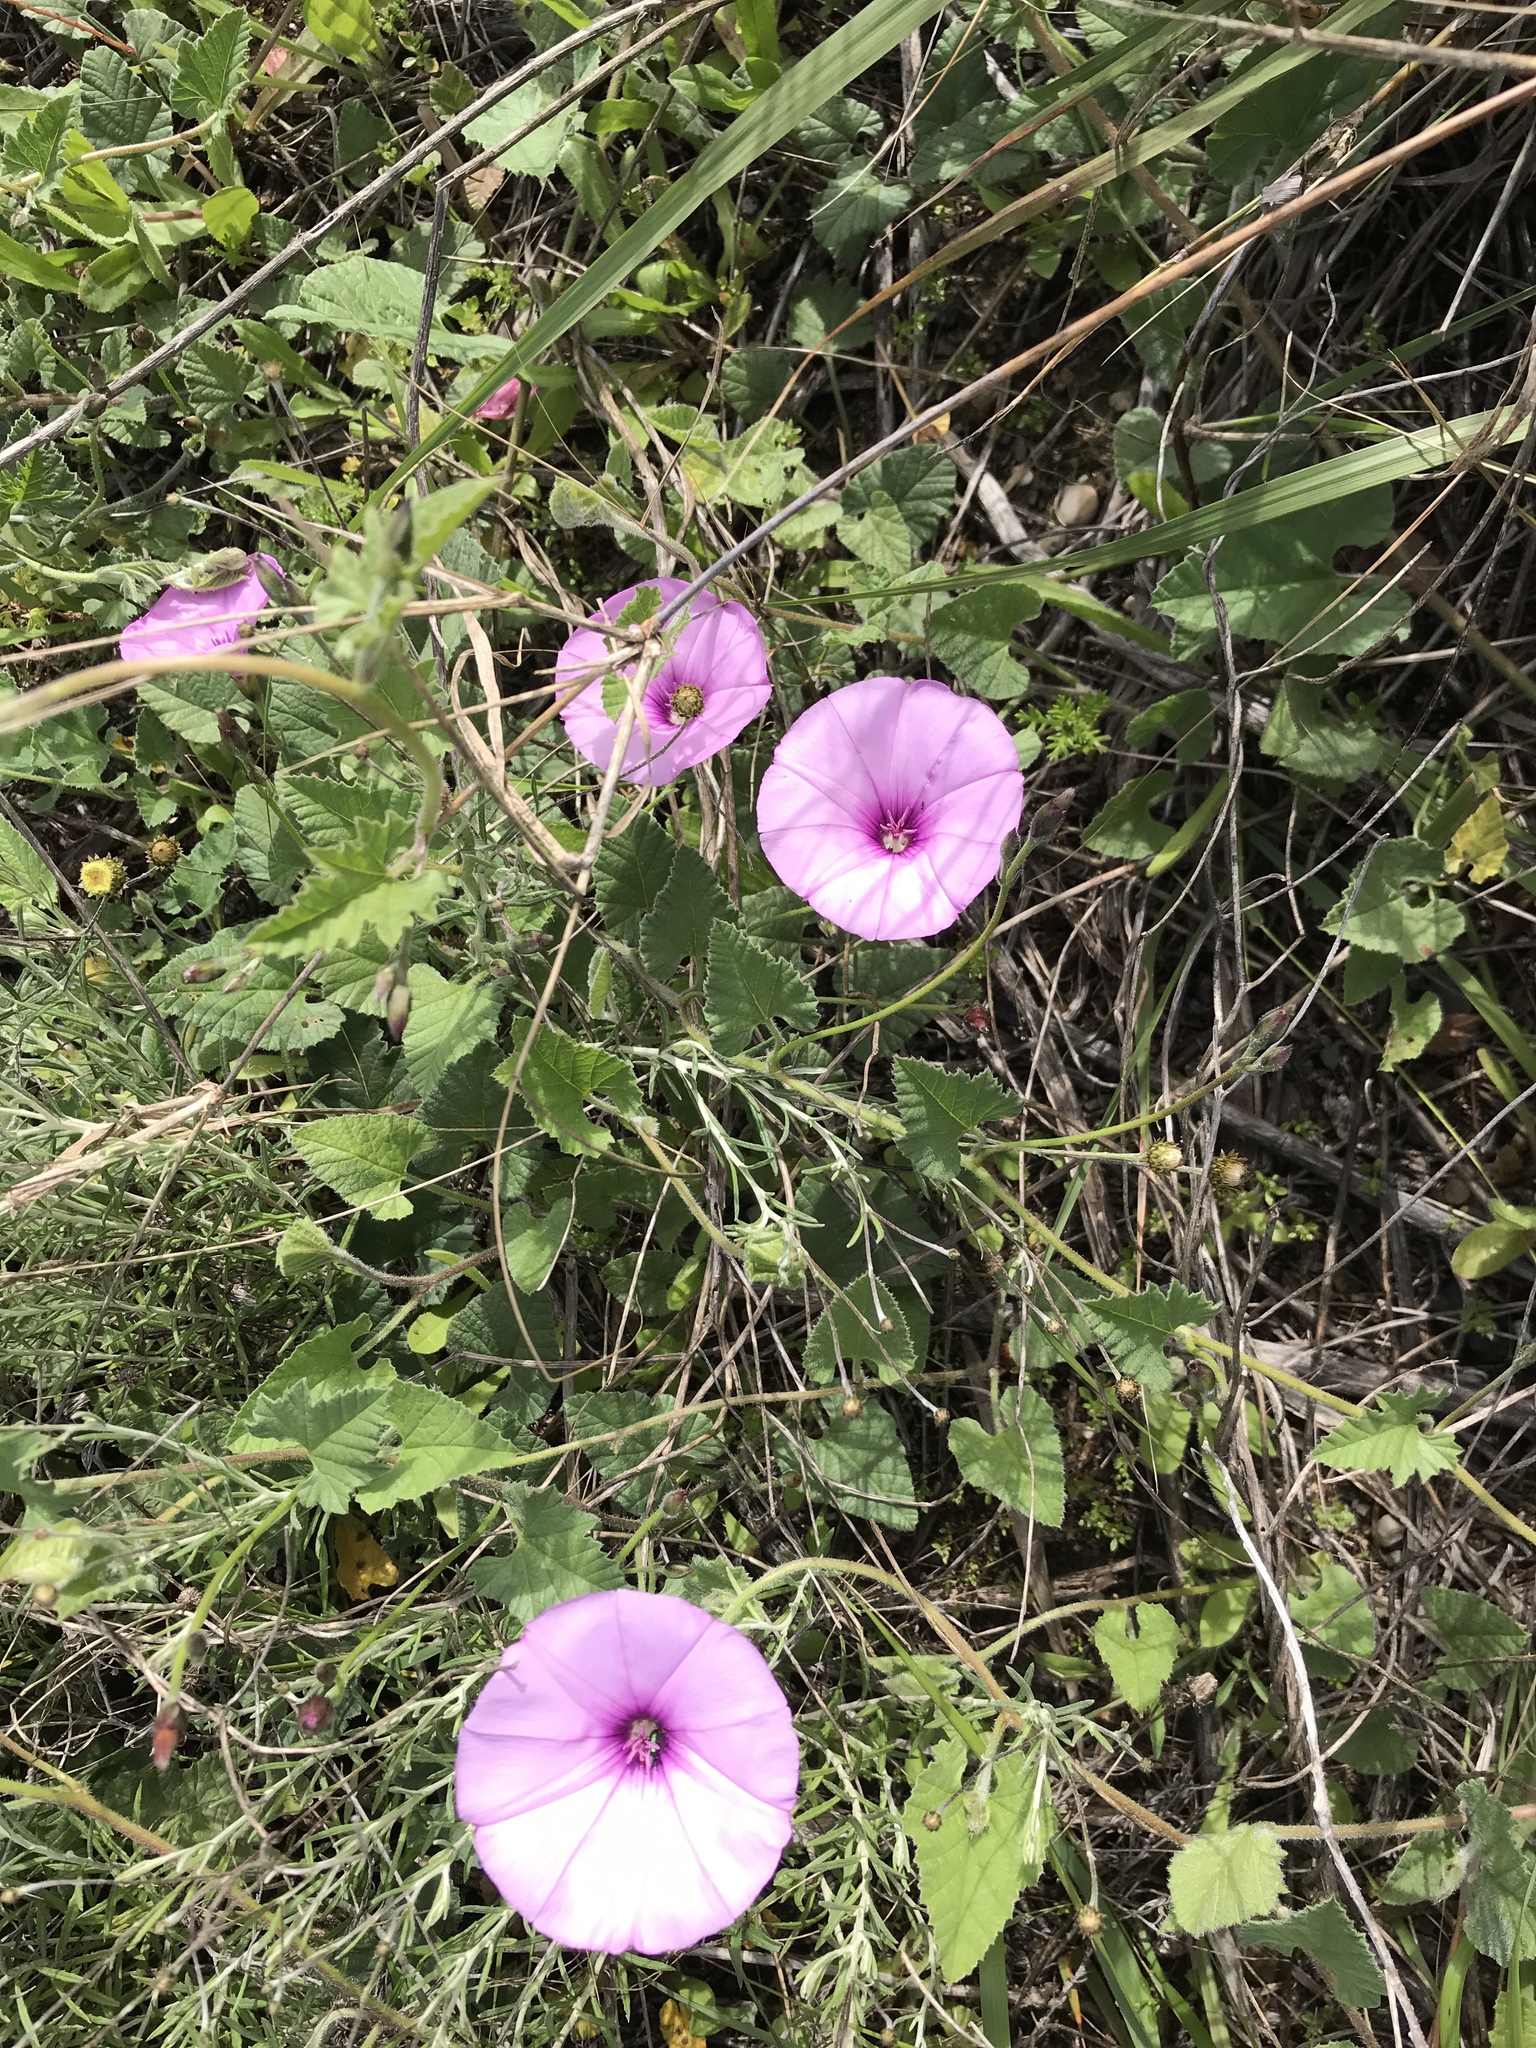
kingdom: Plantae
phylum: Tracheophyta
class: Magnoliopsida
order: Solanales
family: Convolvulaceae
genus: Convolvulus
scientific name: Convolvulus althaeoides
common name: Mallow bindweed
